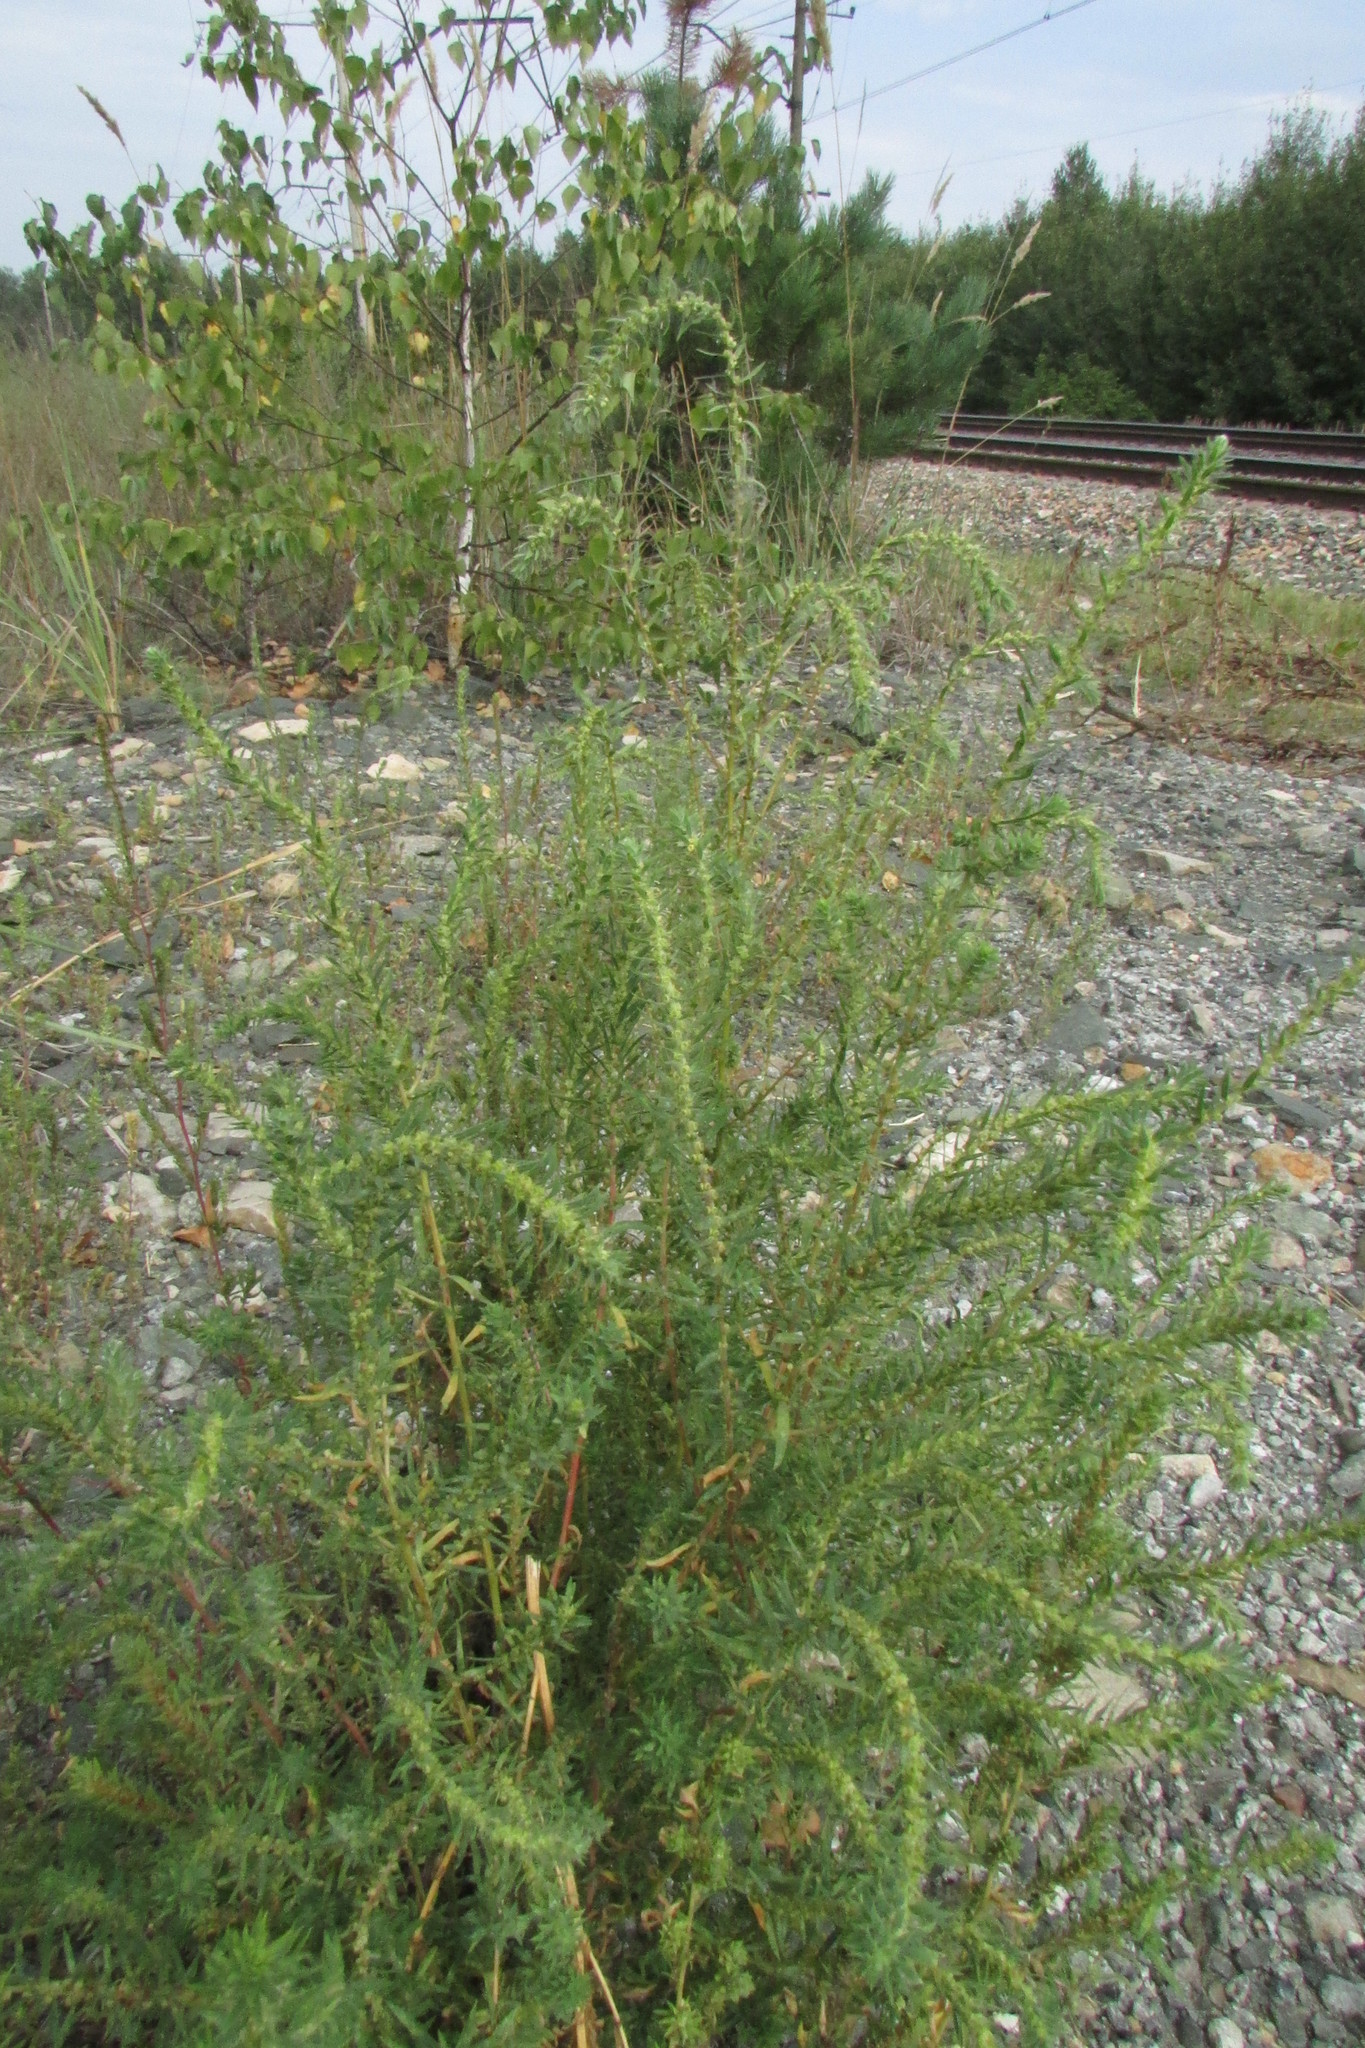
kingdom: Plantae
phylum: Tracheophyta
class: Magnoliopsida
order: Caryophyllales
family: Amaranthaceae
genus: Bassia
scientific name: Bassia scoparia
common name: Belvedere
